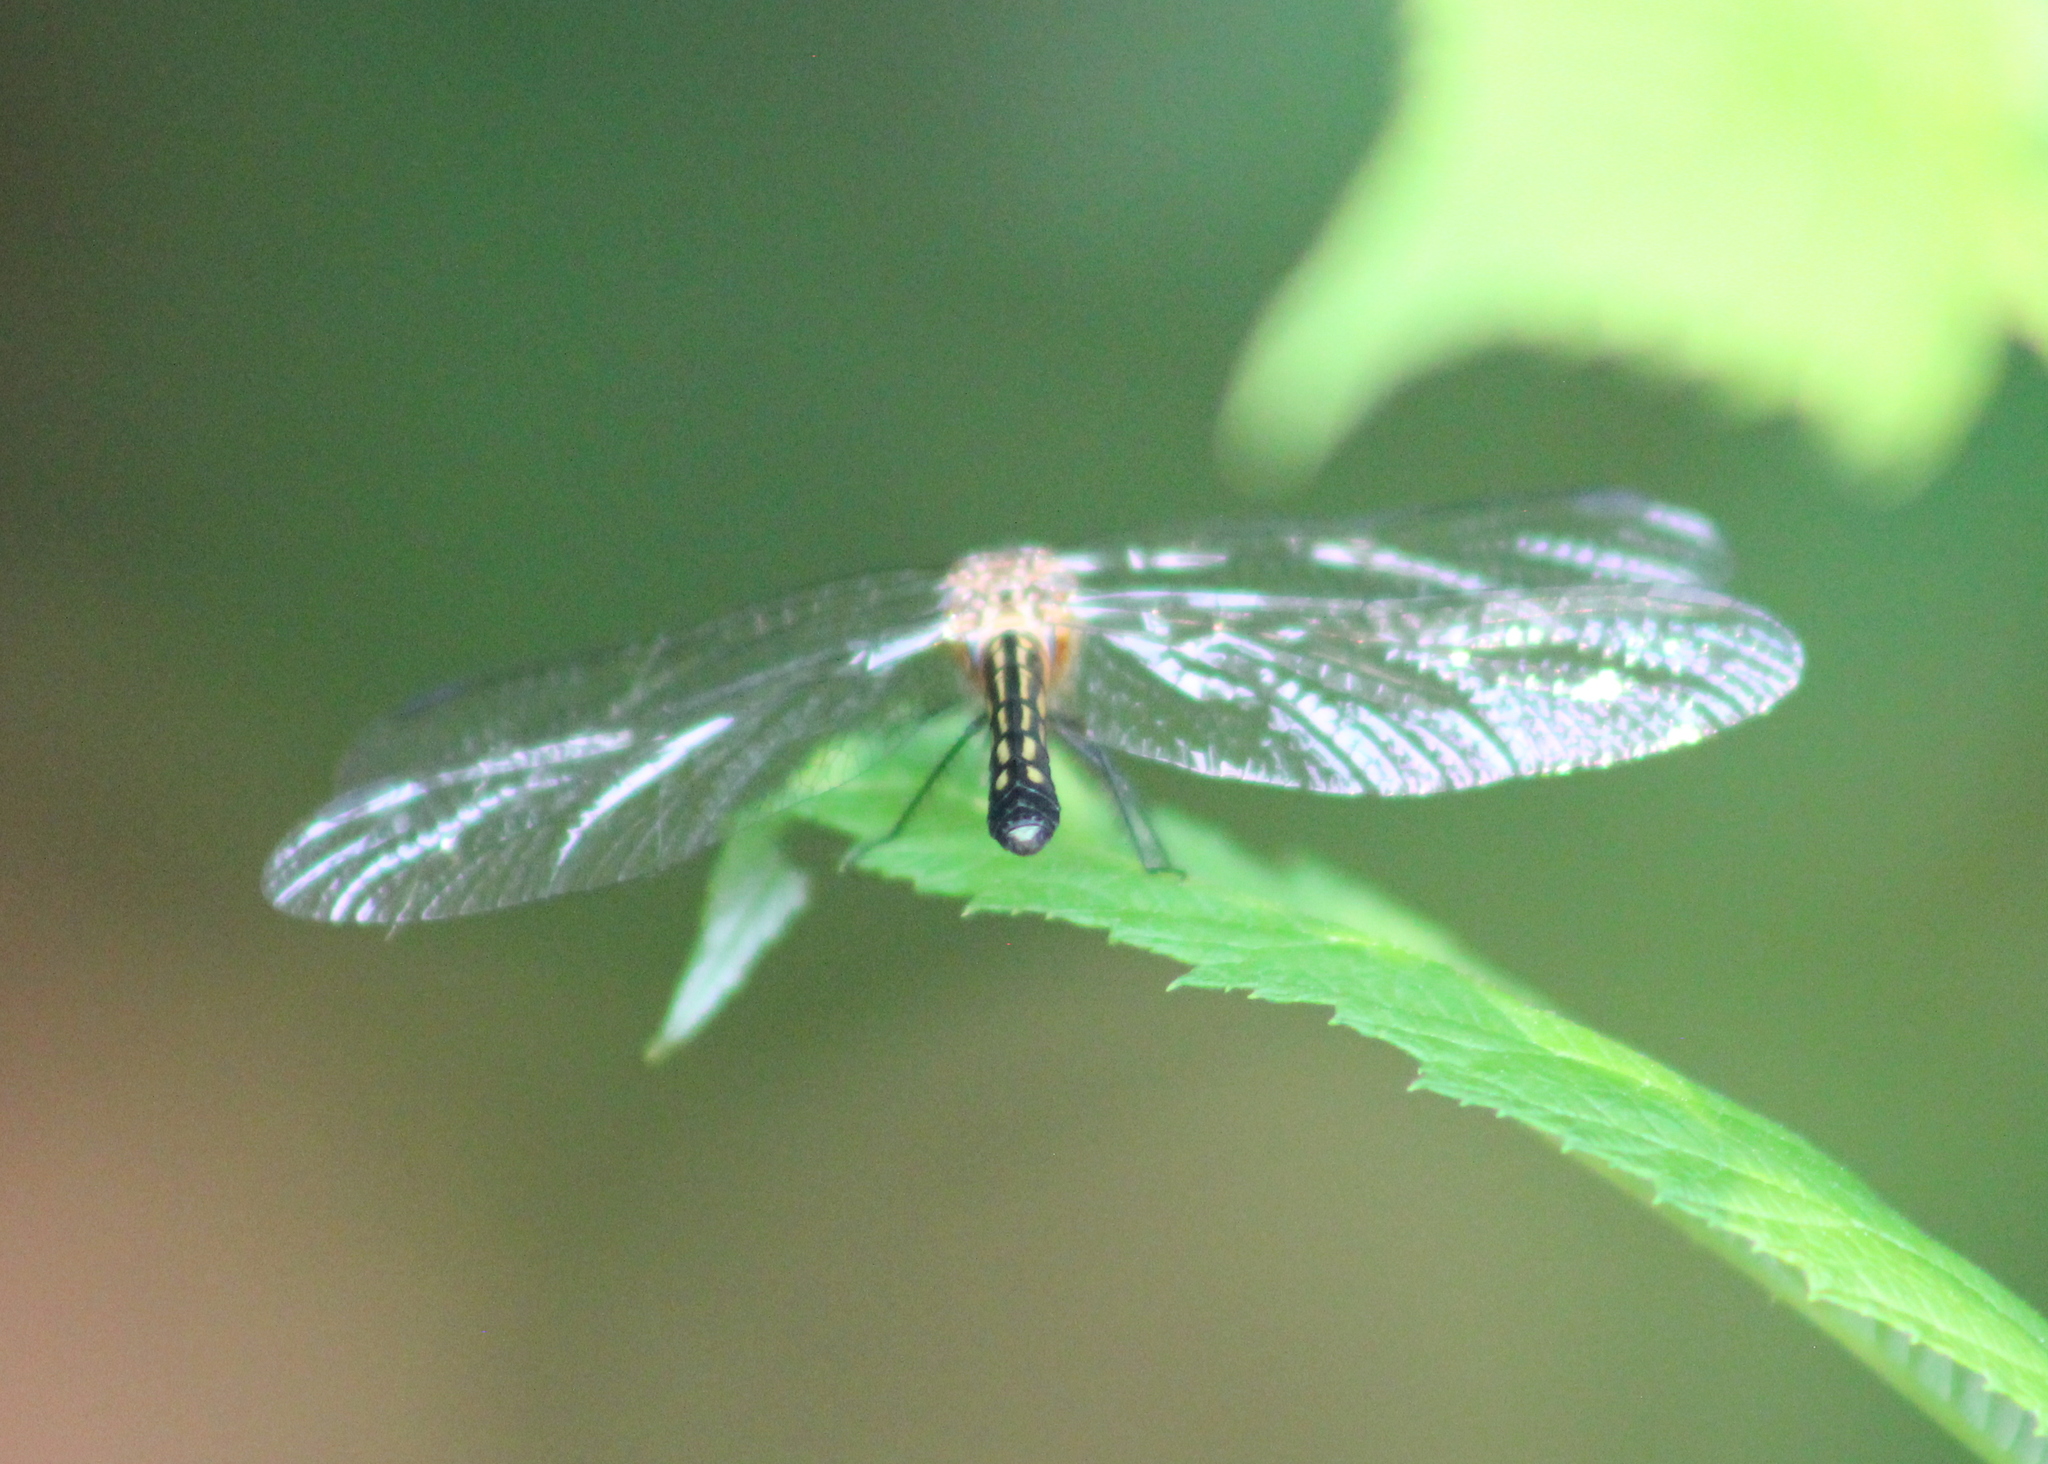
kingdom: Animalia
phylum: Arthropoda
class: Insecta
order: Odonata
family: Libellulidae
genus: Pachydiplax
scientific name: Pachydiplax longipennis
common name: Blue dasher
